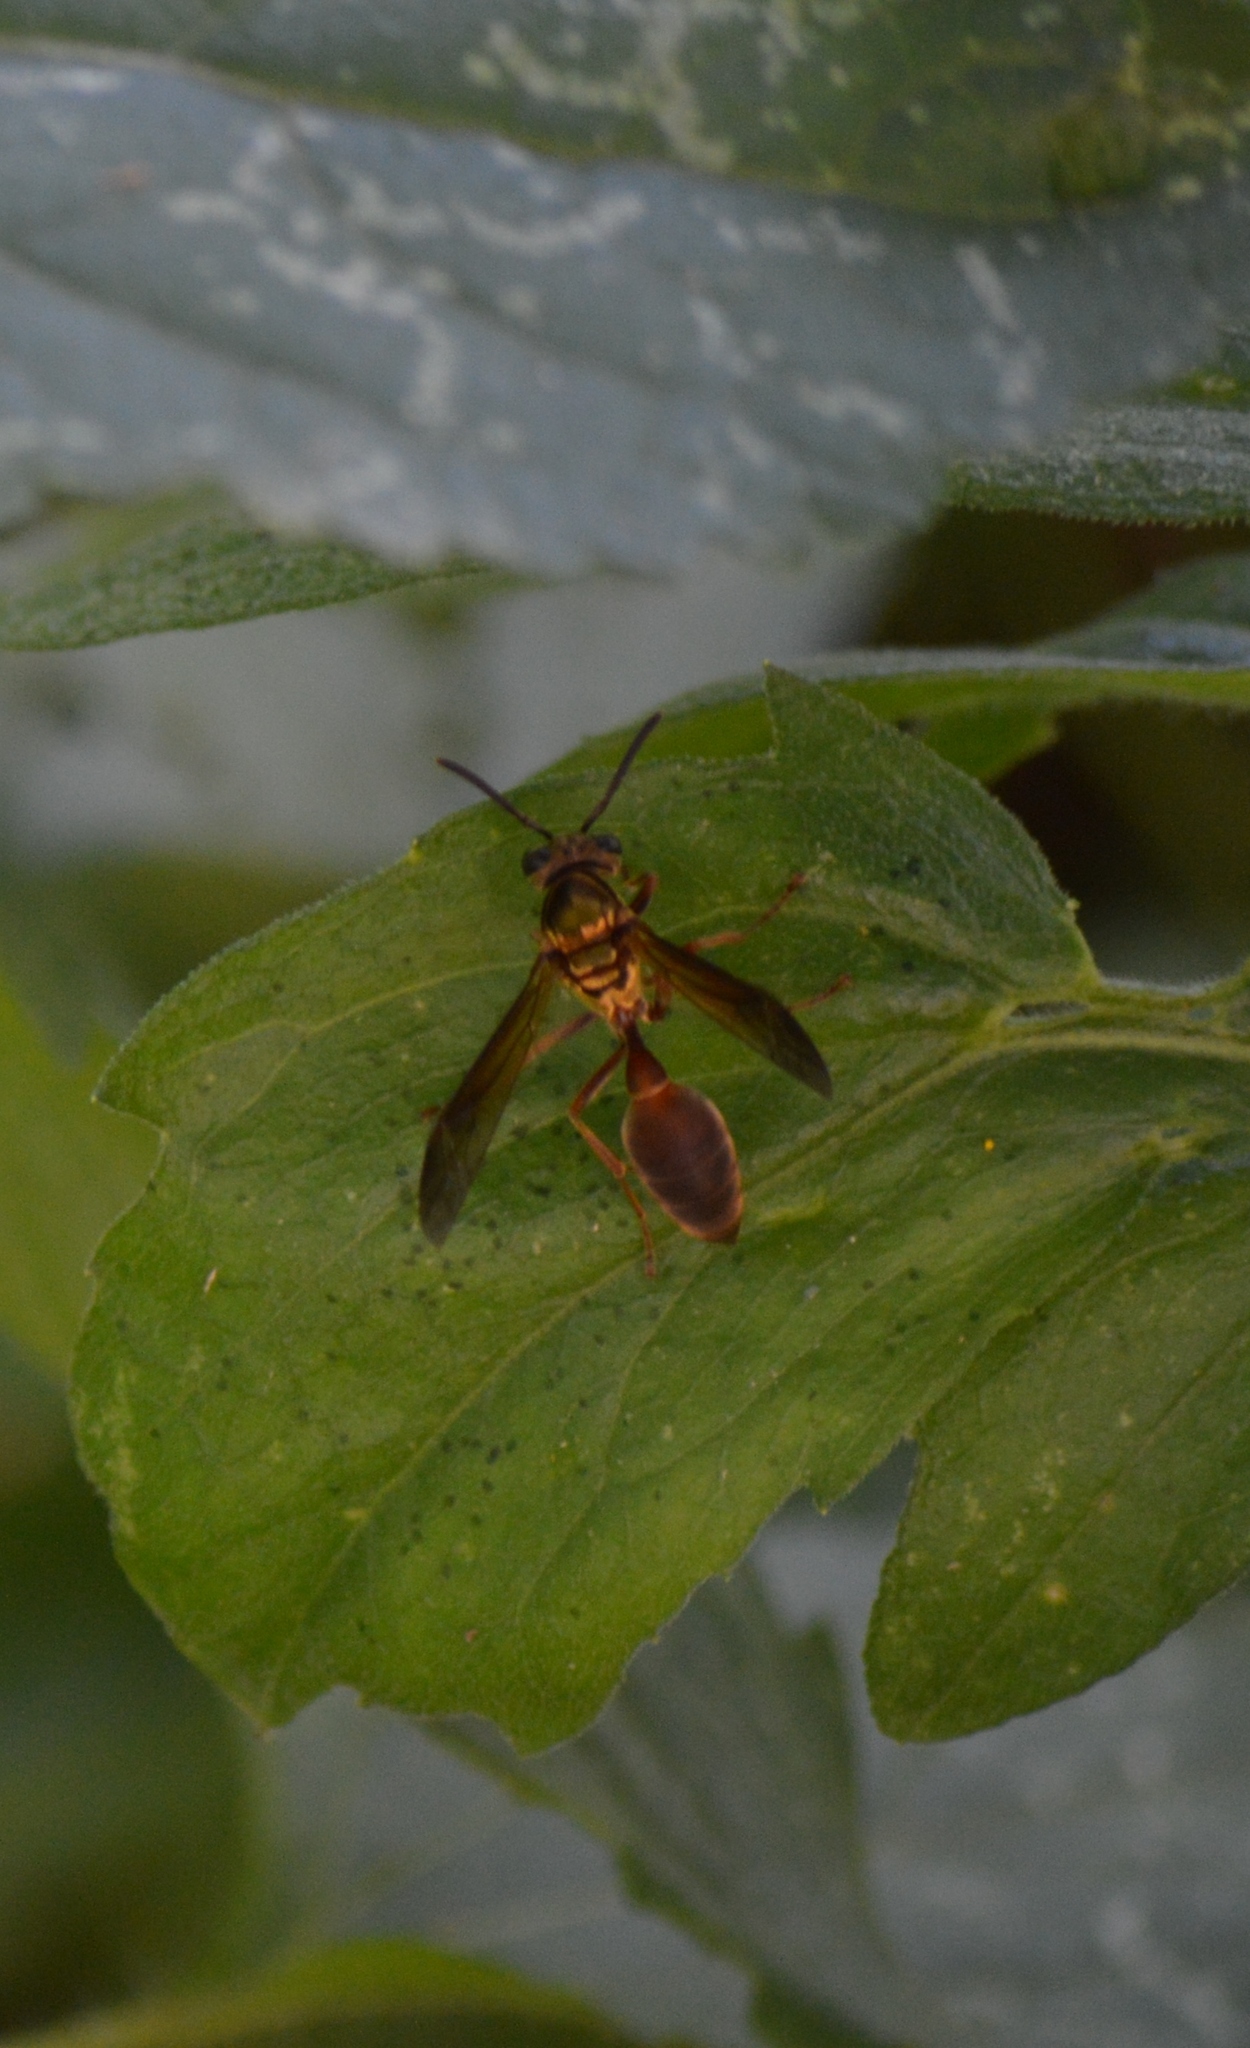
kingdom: Animalia
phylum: Arthropoda
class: Insecta
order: Hymenoptera
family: Eumenidae
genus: Polybia
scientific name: Polybia chrysothorax
